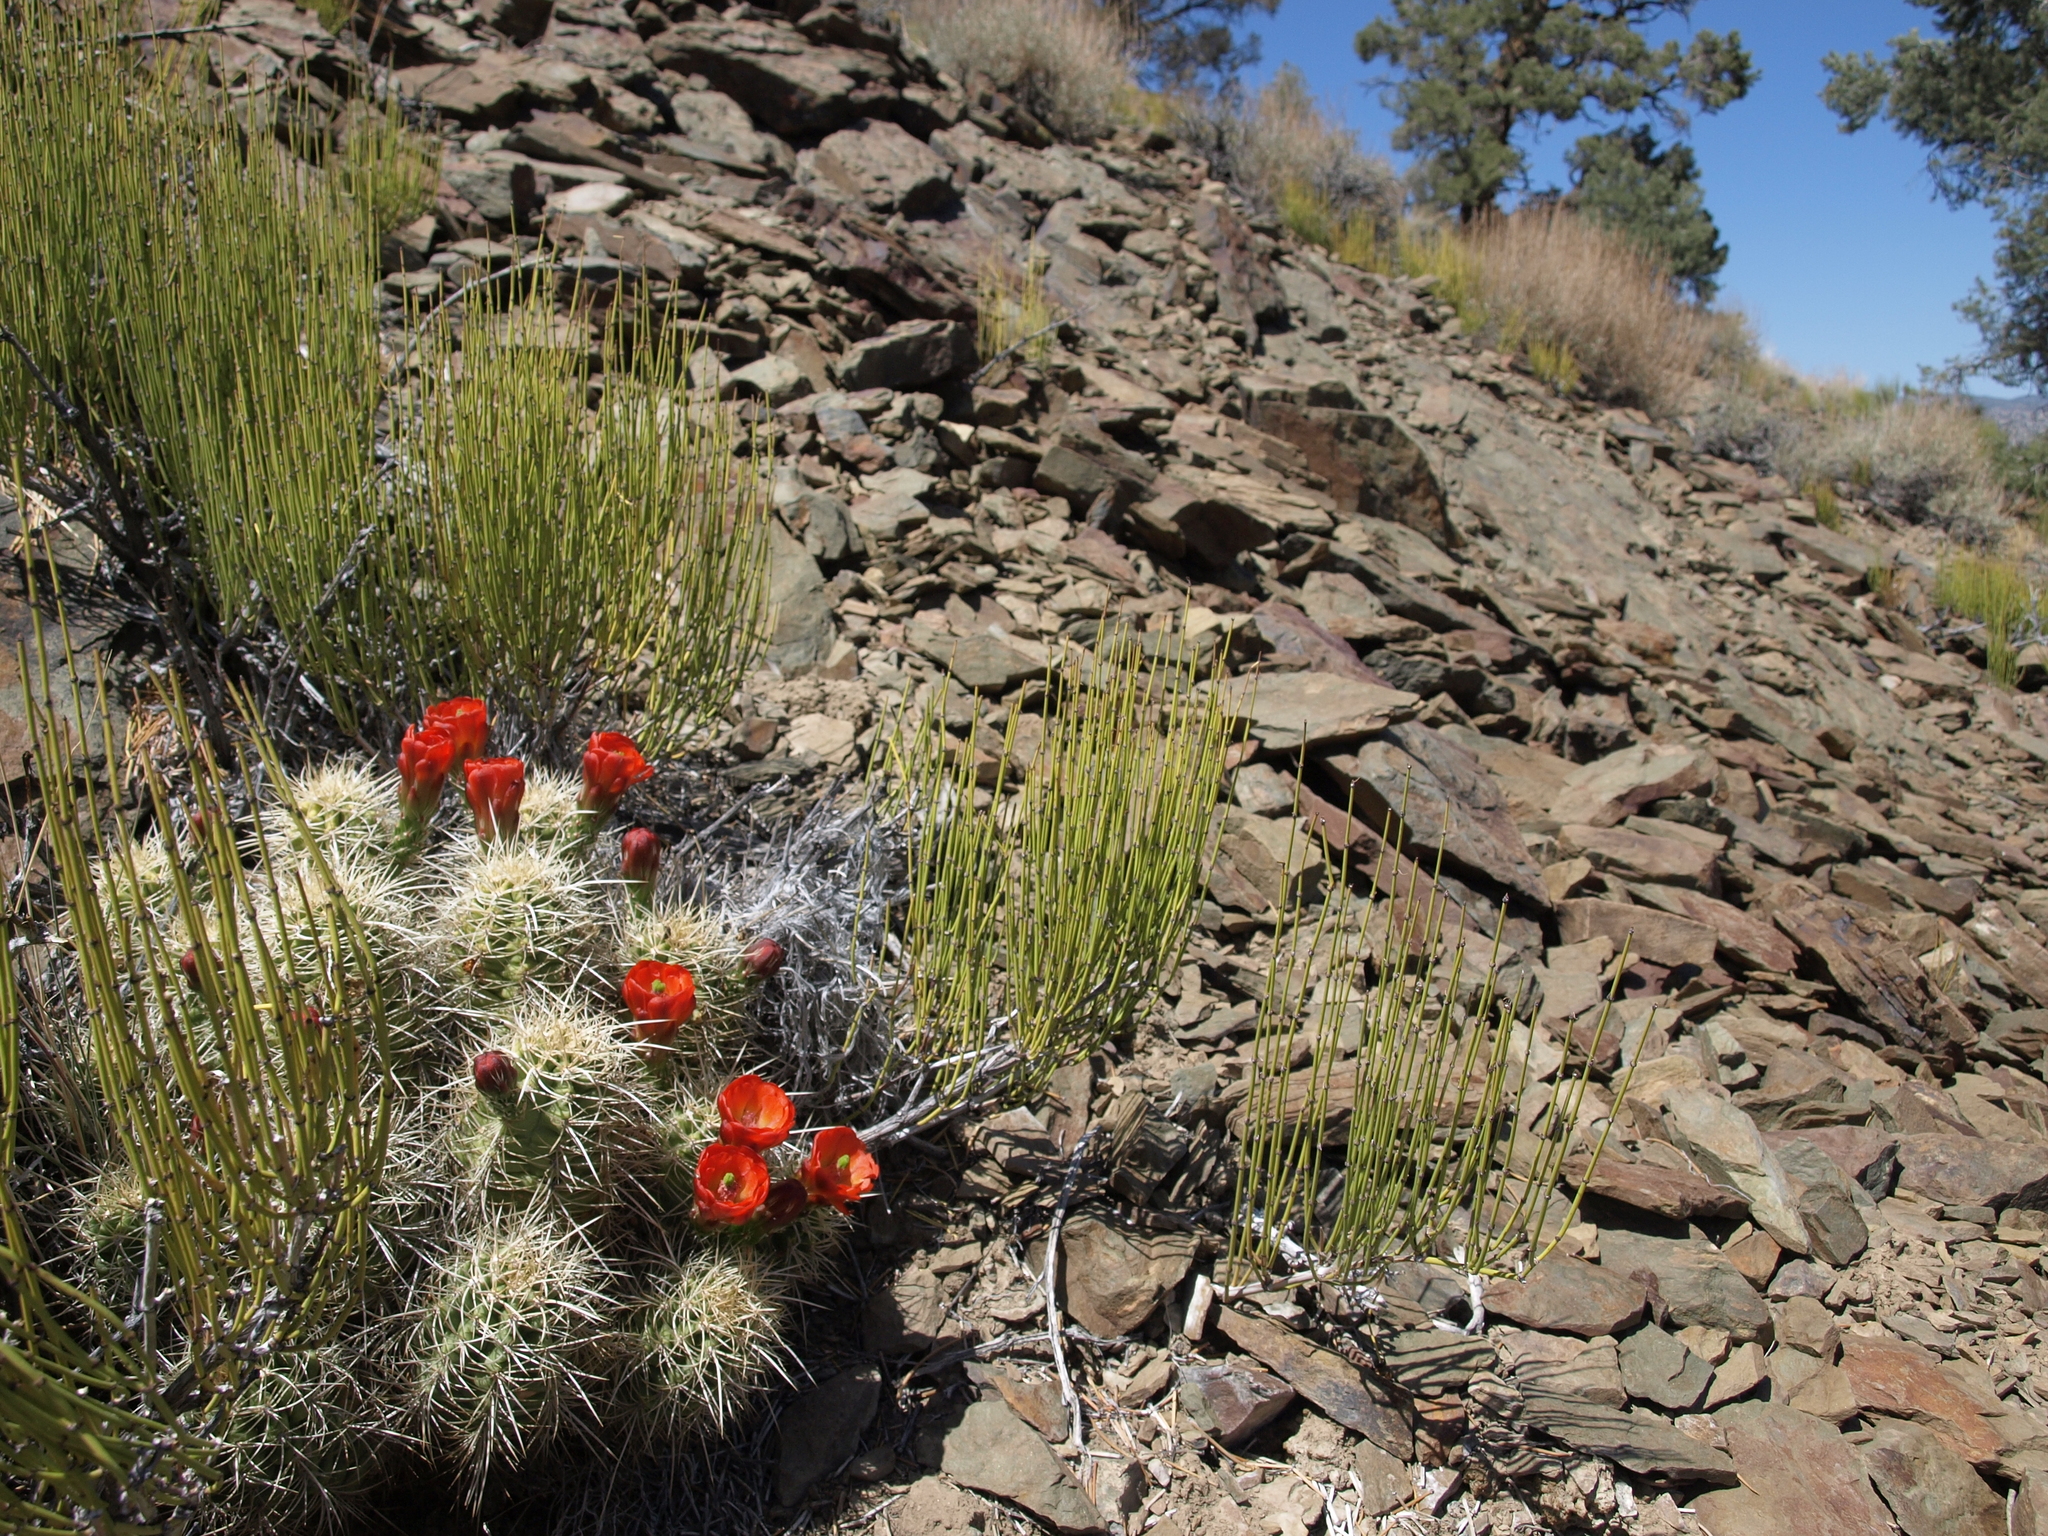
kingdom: Plantae
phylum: Tracheophyta
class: Magnoliopsida
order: Caryophyllales
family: Cactaceae
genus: Echinocereus
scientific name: Echinocereus triglochidiatus
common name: Claretcup hedgehog
